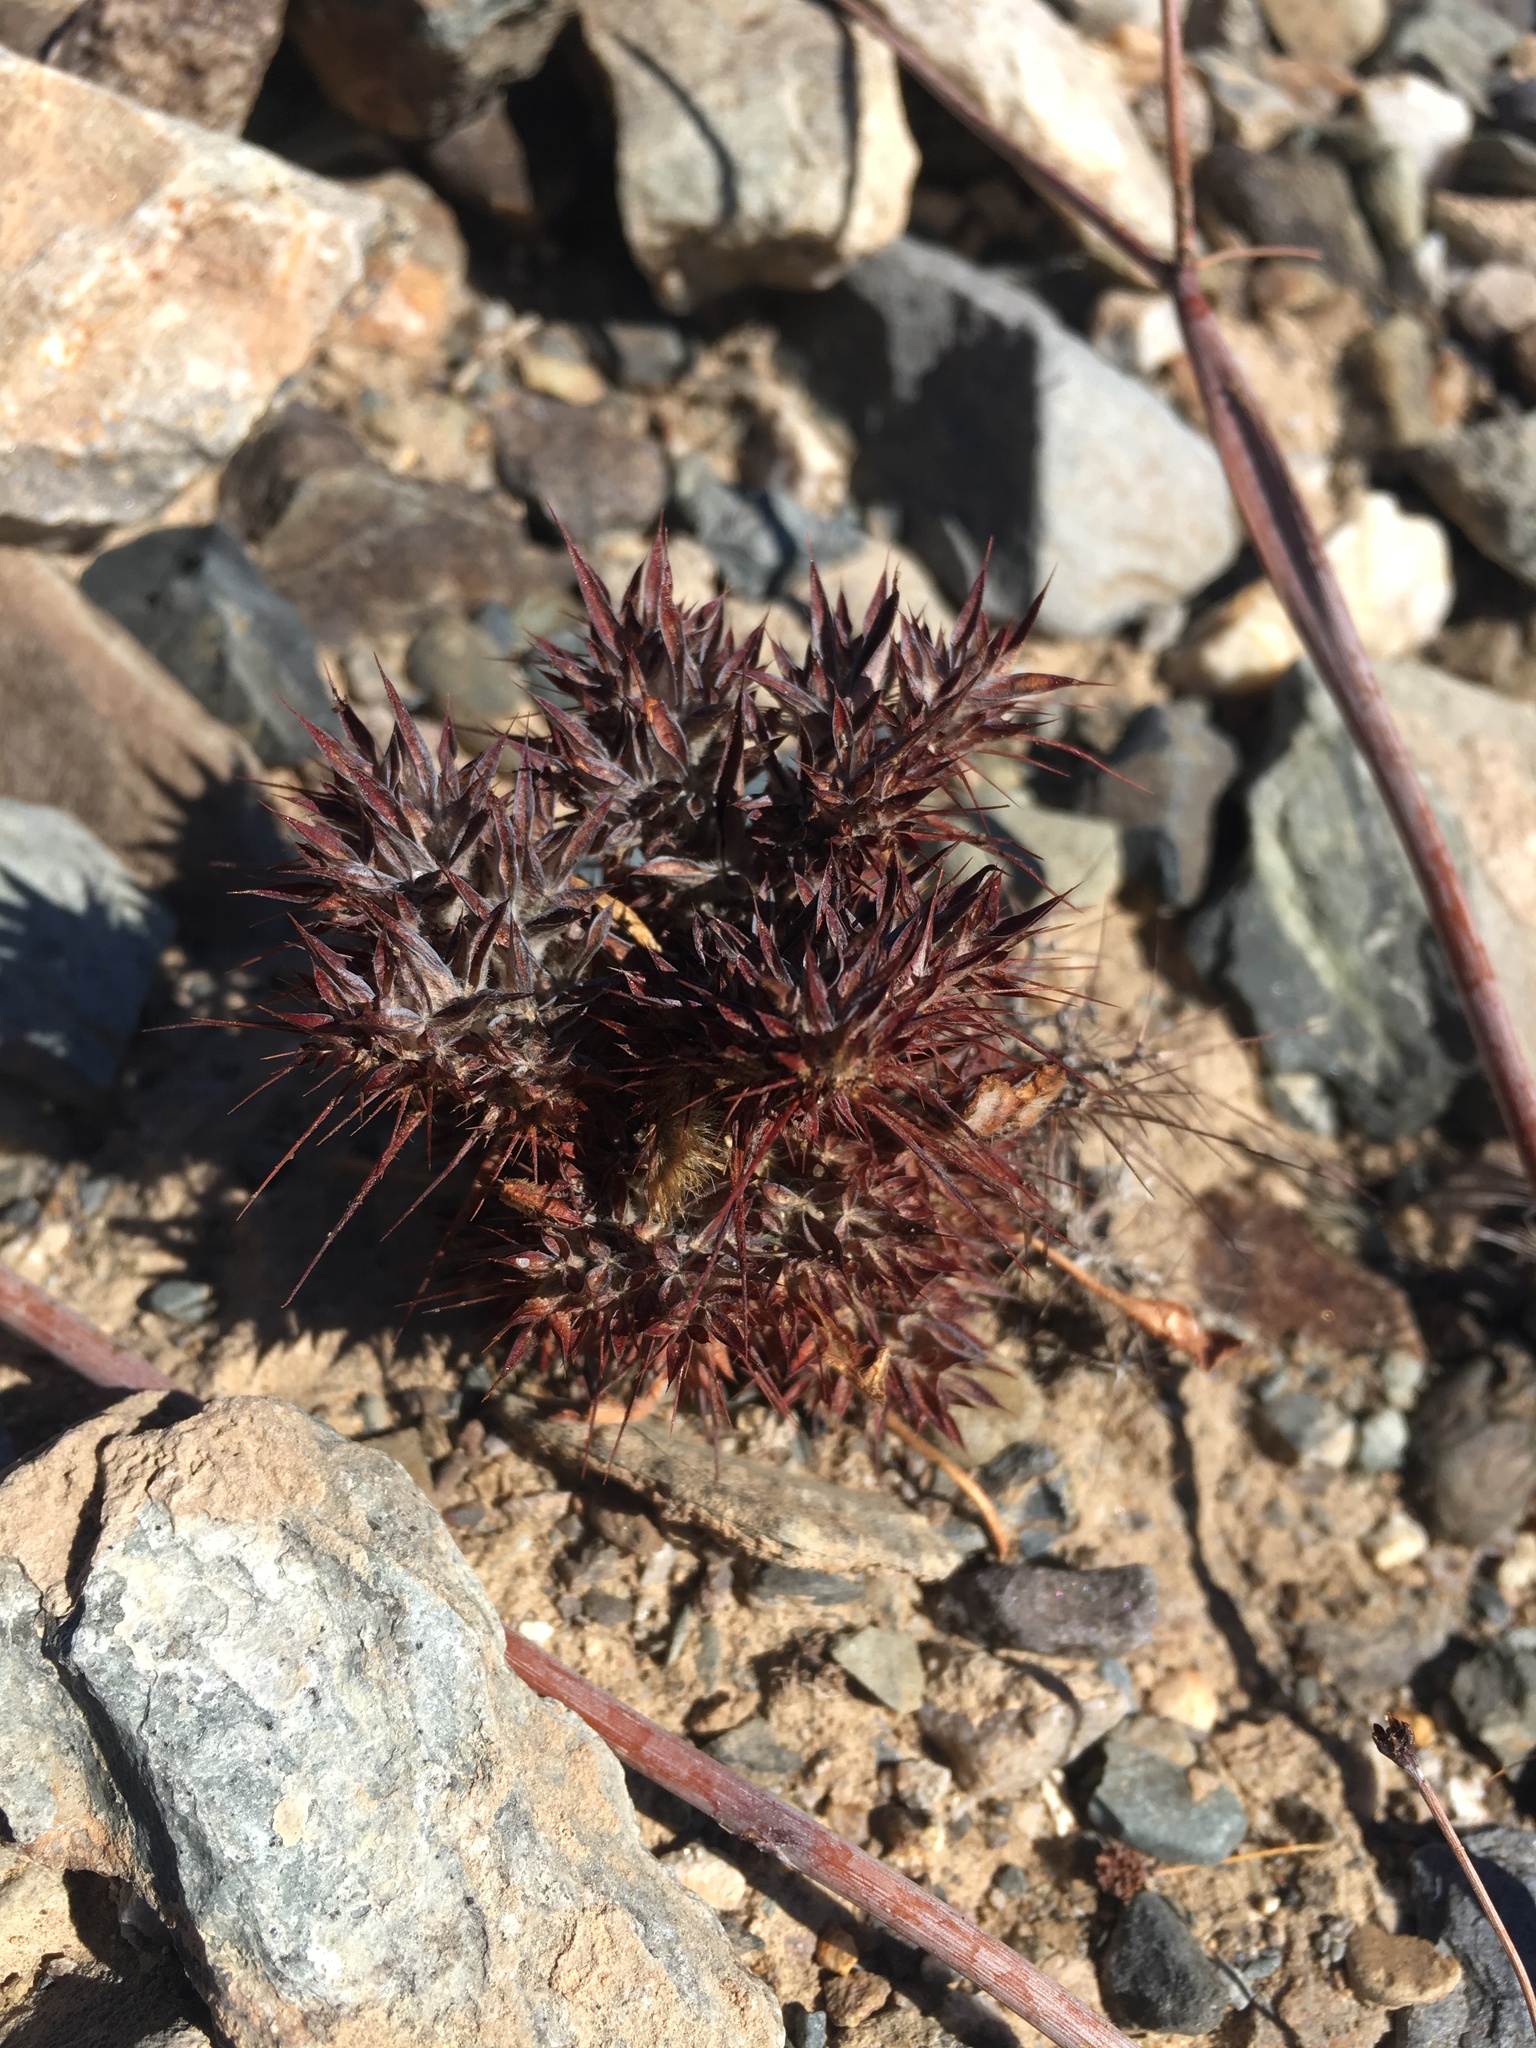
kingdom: Plantae
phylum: Tracheophyta
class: Magnoliopsida
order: Caryophyllales
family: Polygonaceae
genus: Chorizanthe
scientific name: Chorizanthe rigida
